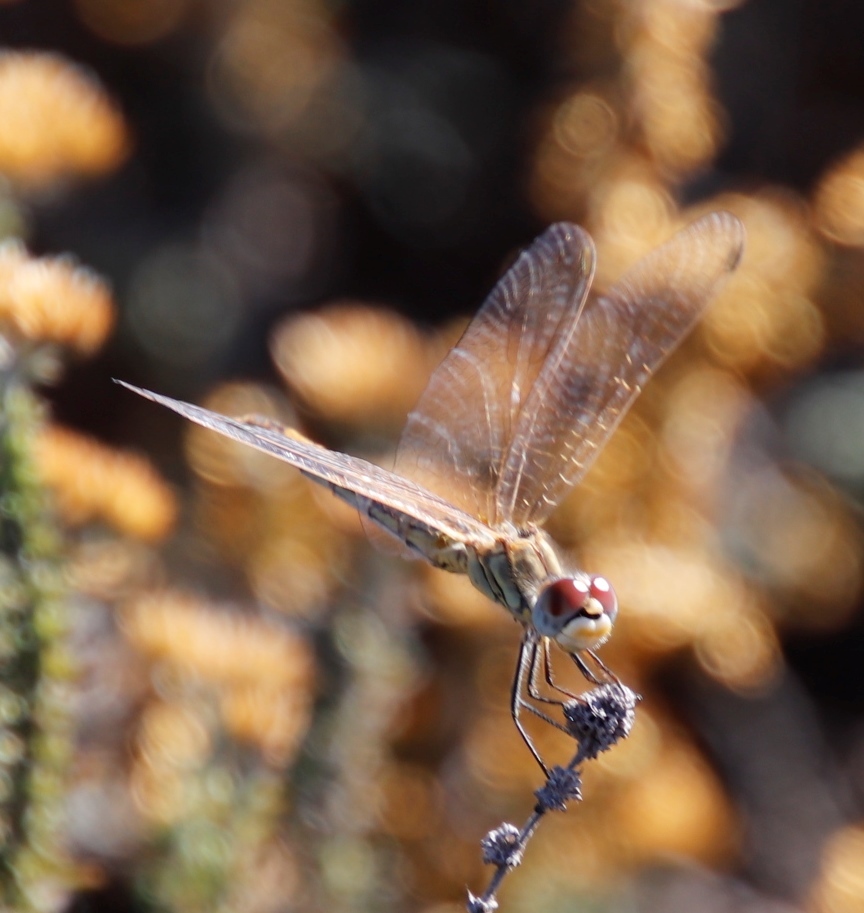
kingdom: Animalia
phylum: Arthropoda
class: Insecta
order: Odonata
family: Libellulidae
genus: Sympetrum
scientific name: Sympetrum fonscolombii
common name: Red-veined darter
